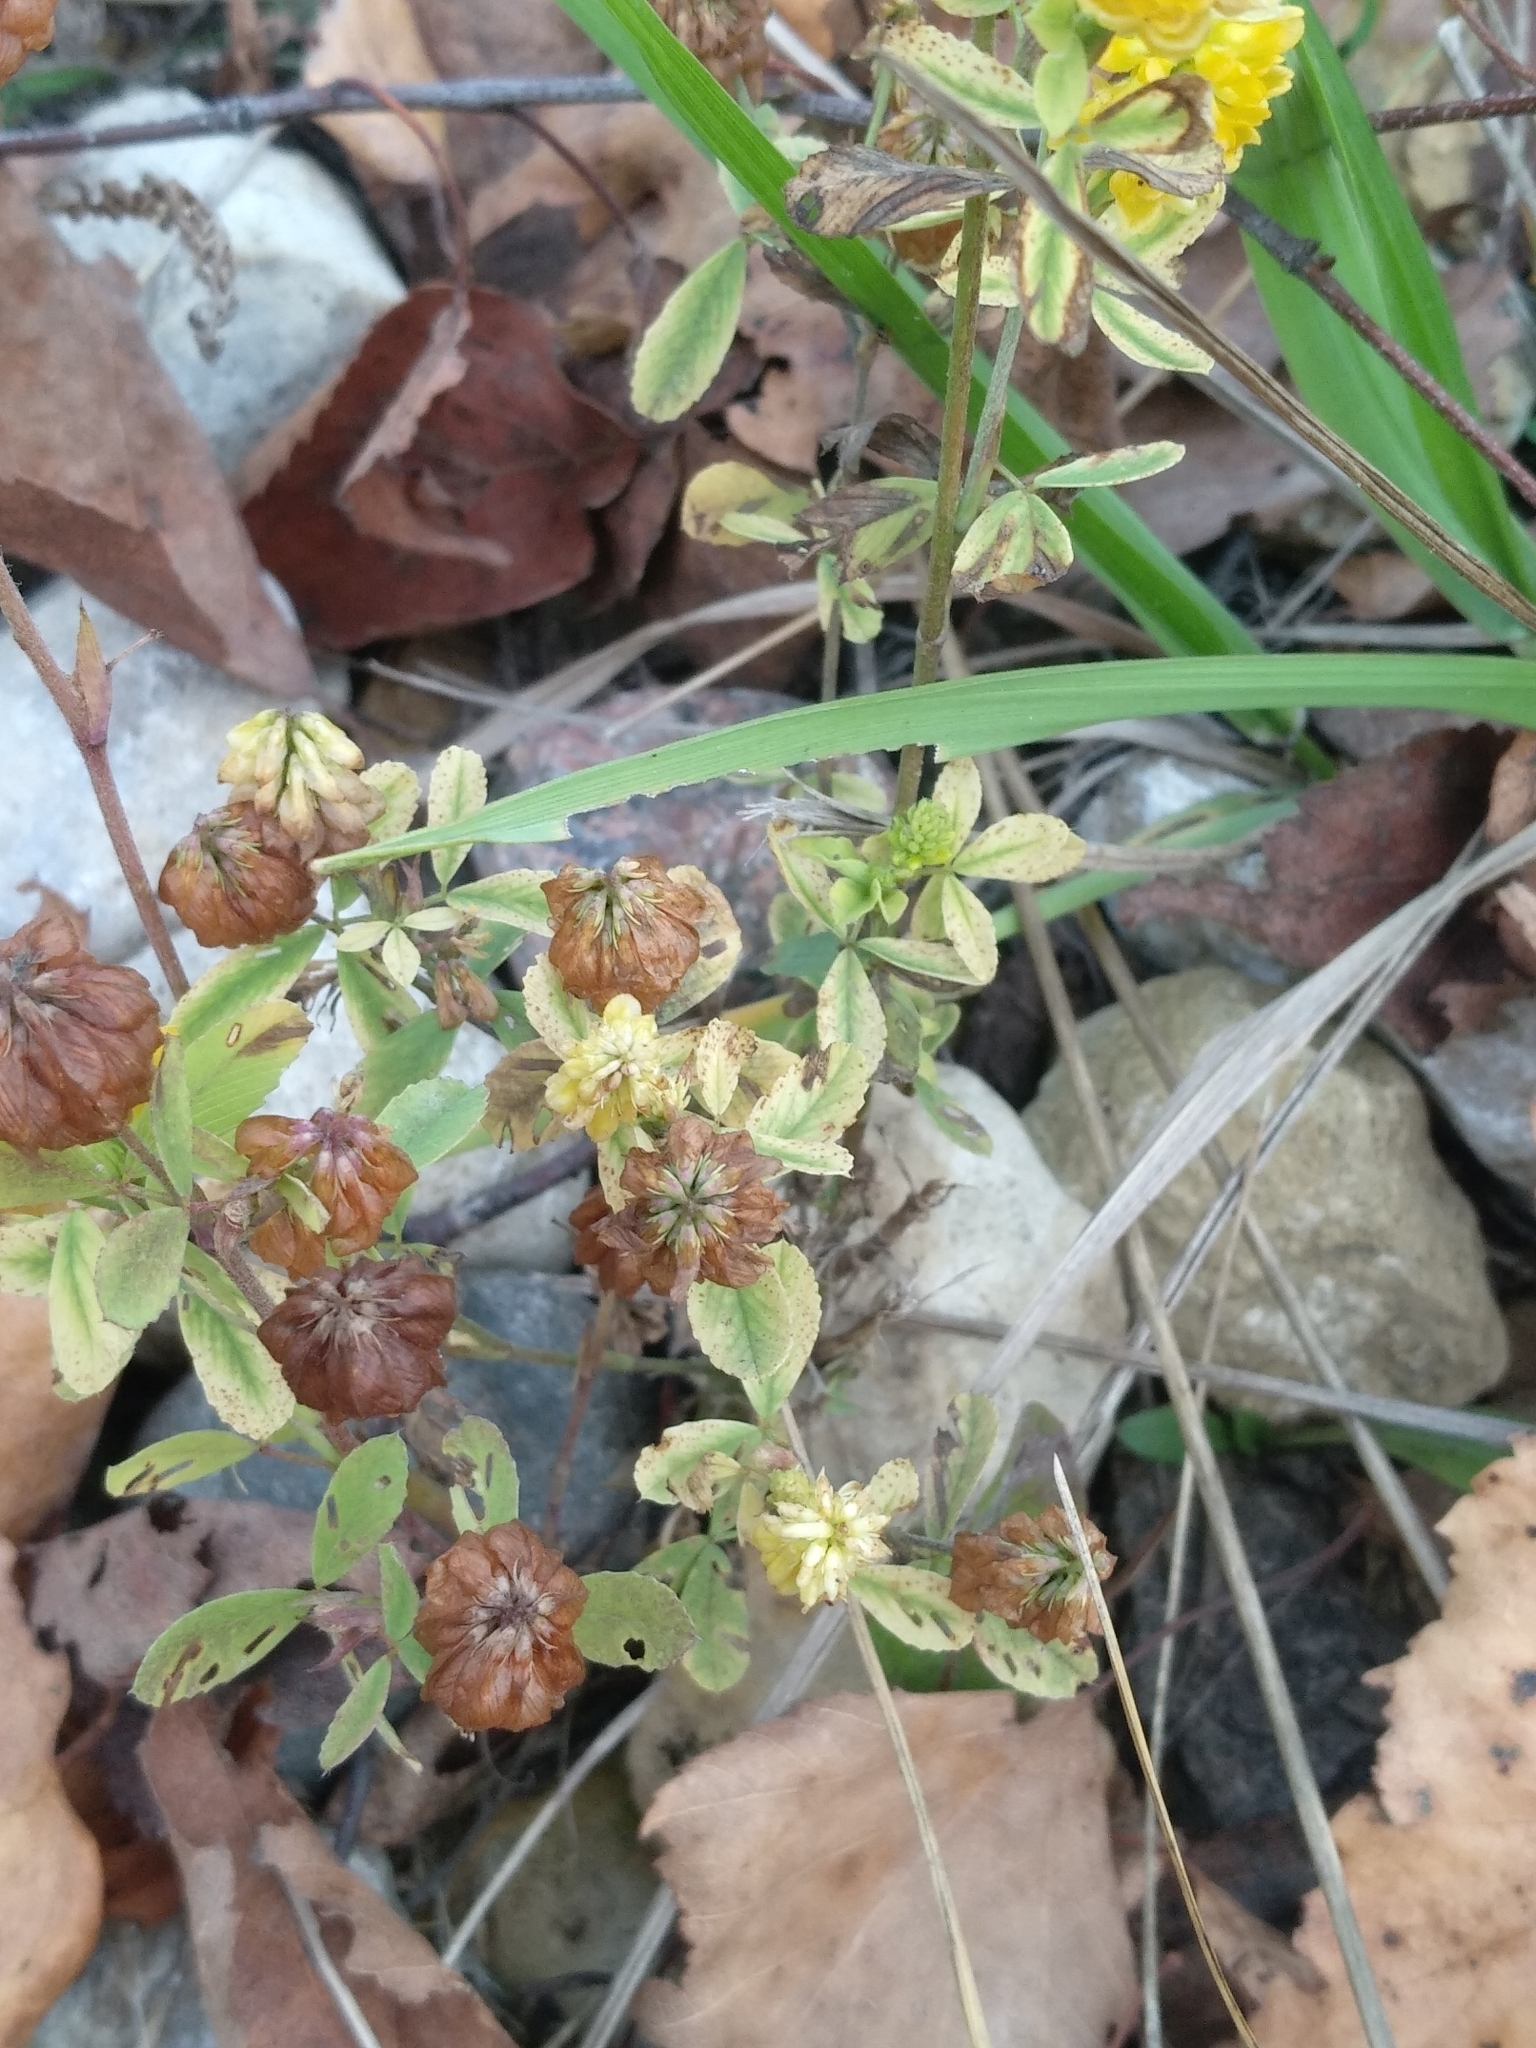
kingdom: Plantae
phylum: Tracheophyta
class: Magnoliopsida
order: Fabales
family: Fabaceae
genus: Trifolium
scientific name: Trifolium aureum
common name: Golden clover
